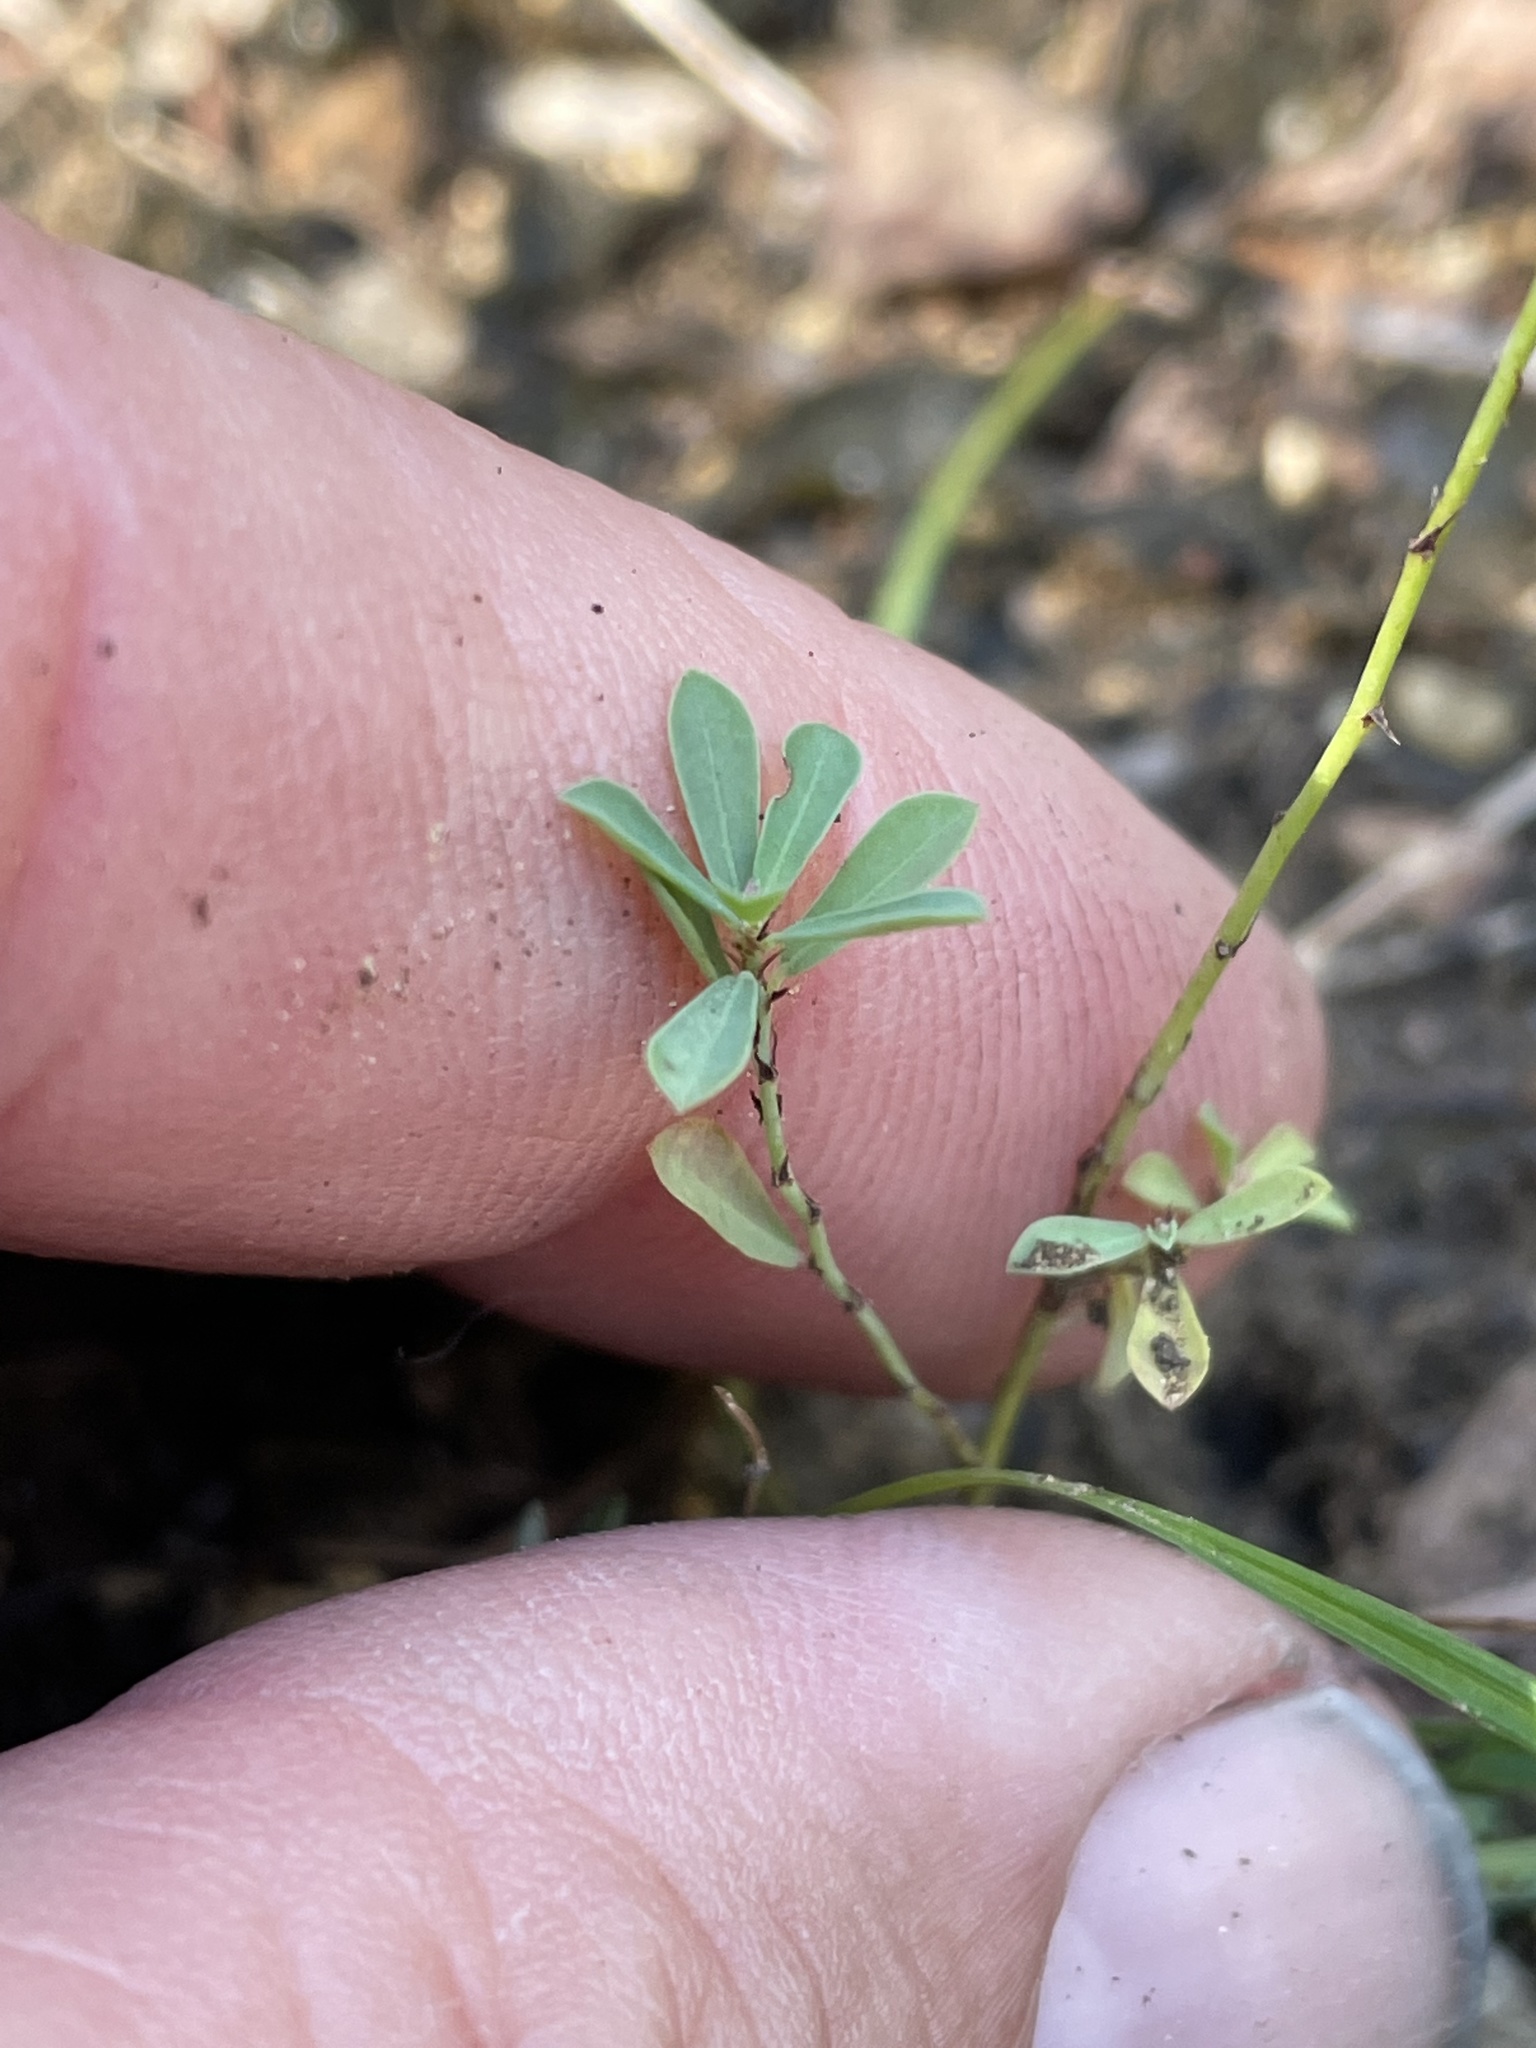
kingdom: Plantae
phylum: Tracheophyta
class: Magnoliopsida
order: Malpighiales
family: Phyllanthaceae
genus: Phyllanthus
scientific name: Phyllanthus polygonoides
